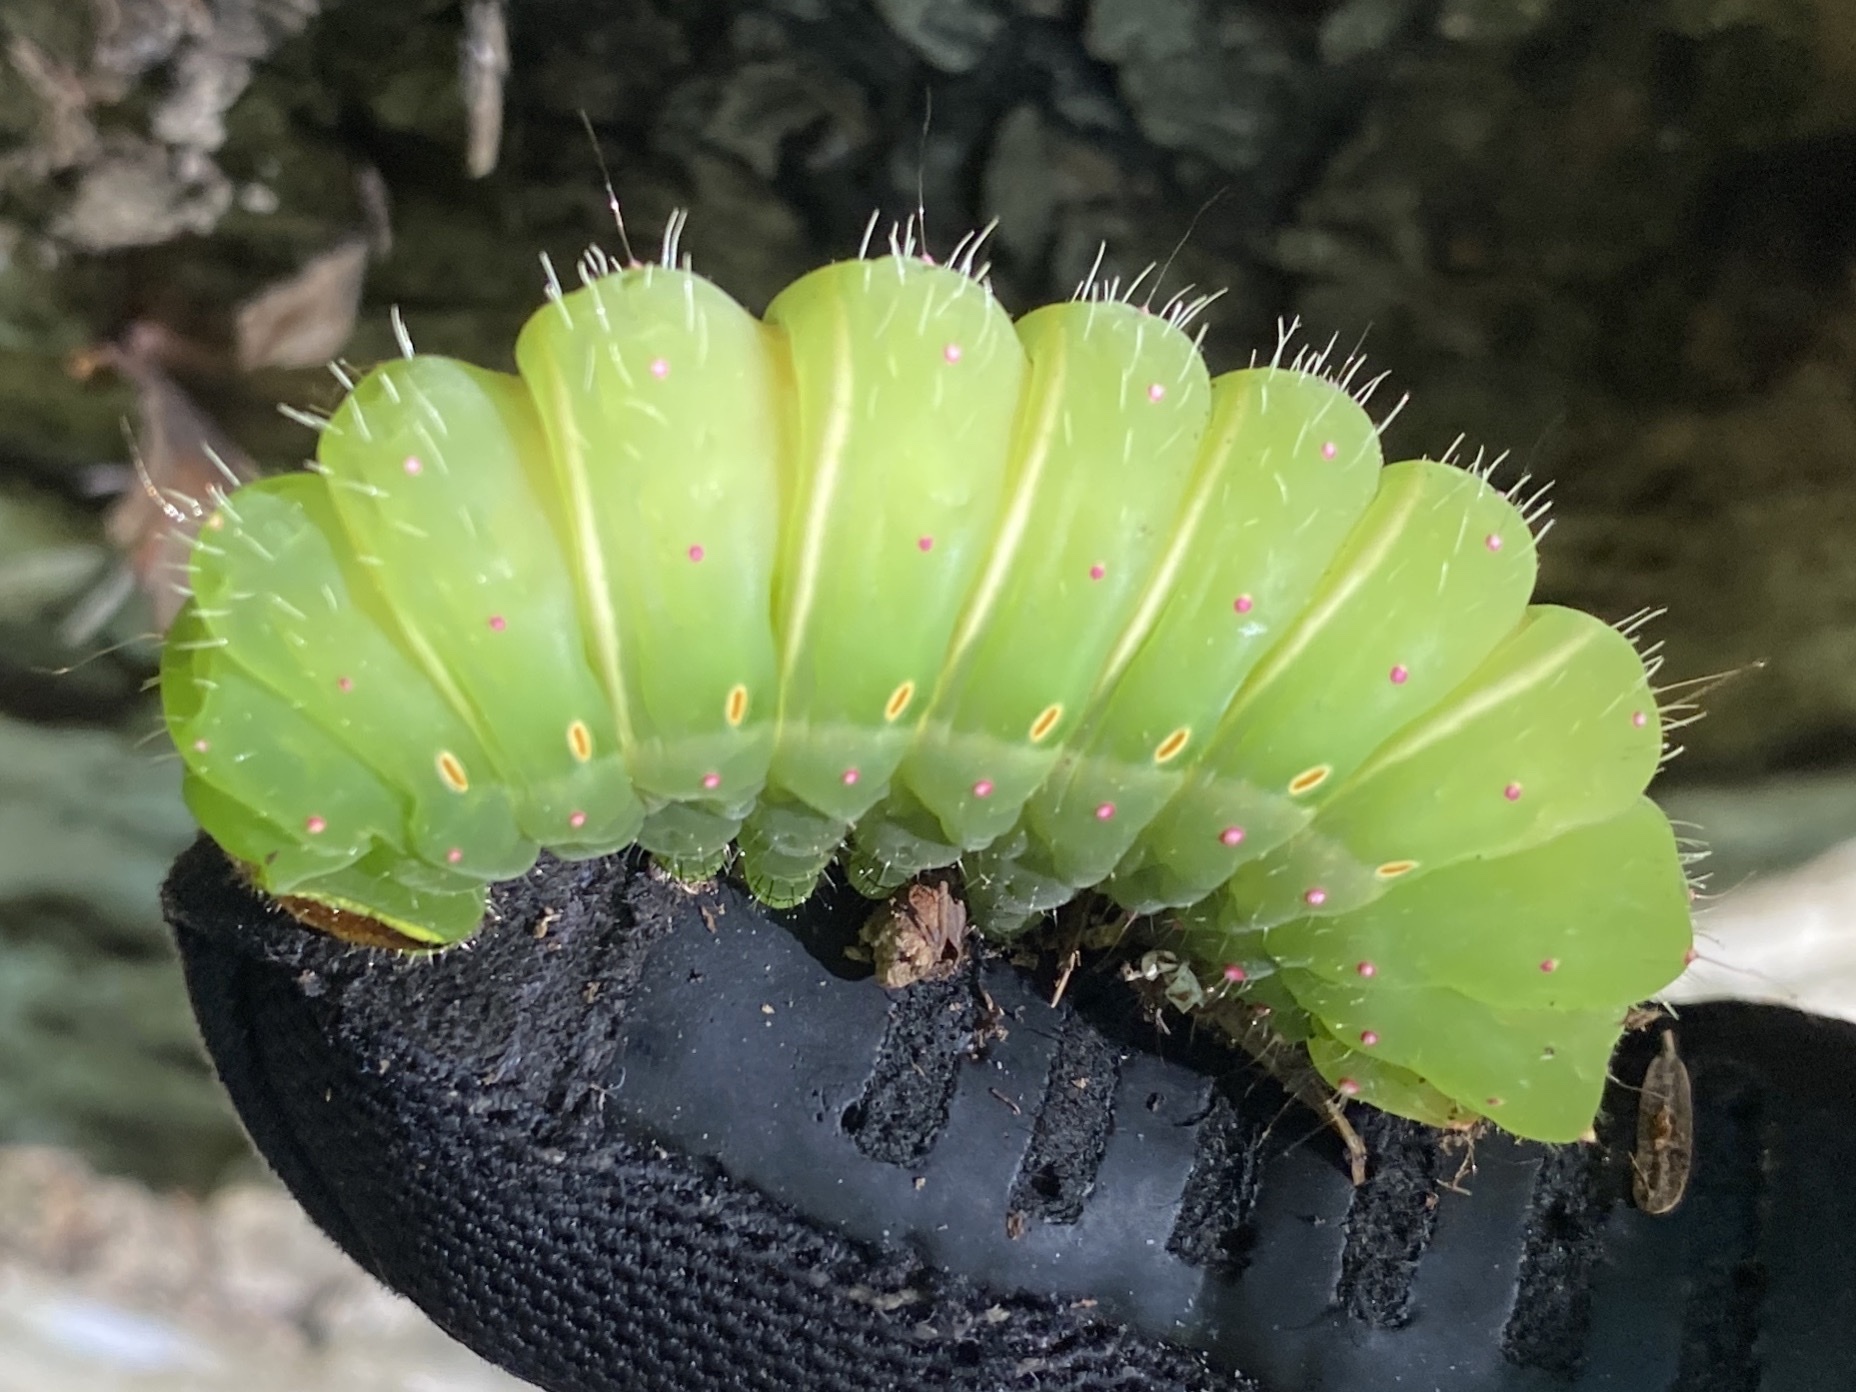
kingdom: Animalia
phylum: Arthropoda
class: Insecta
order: Lepidoptera
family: Saturniidae
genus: Actias
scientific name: Actias luna
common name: Luna moth
